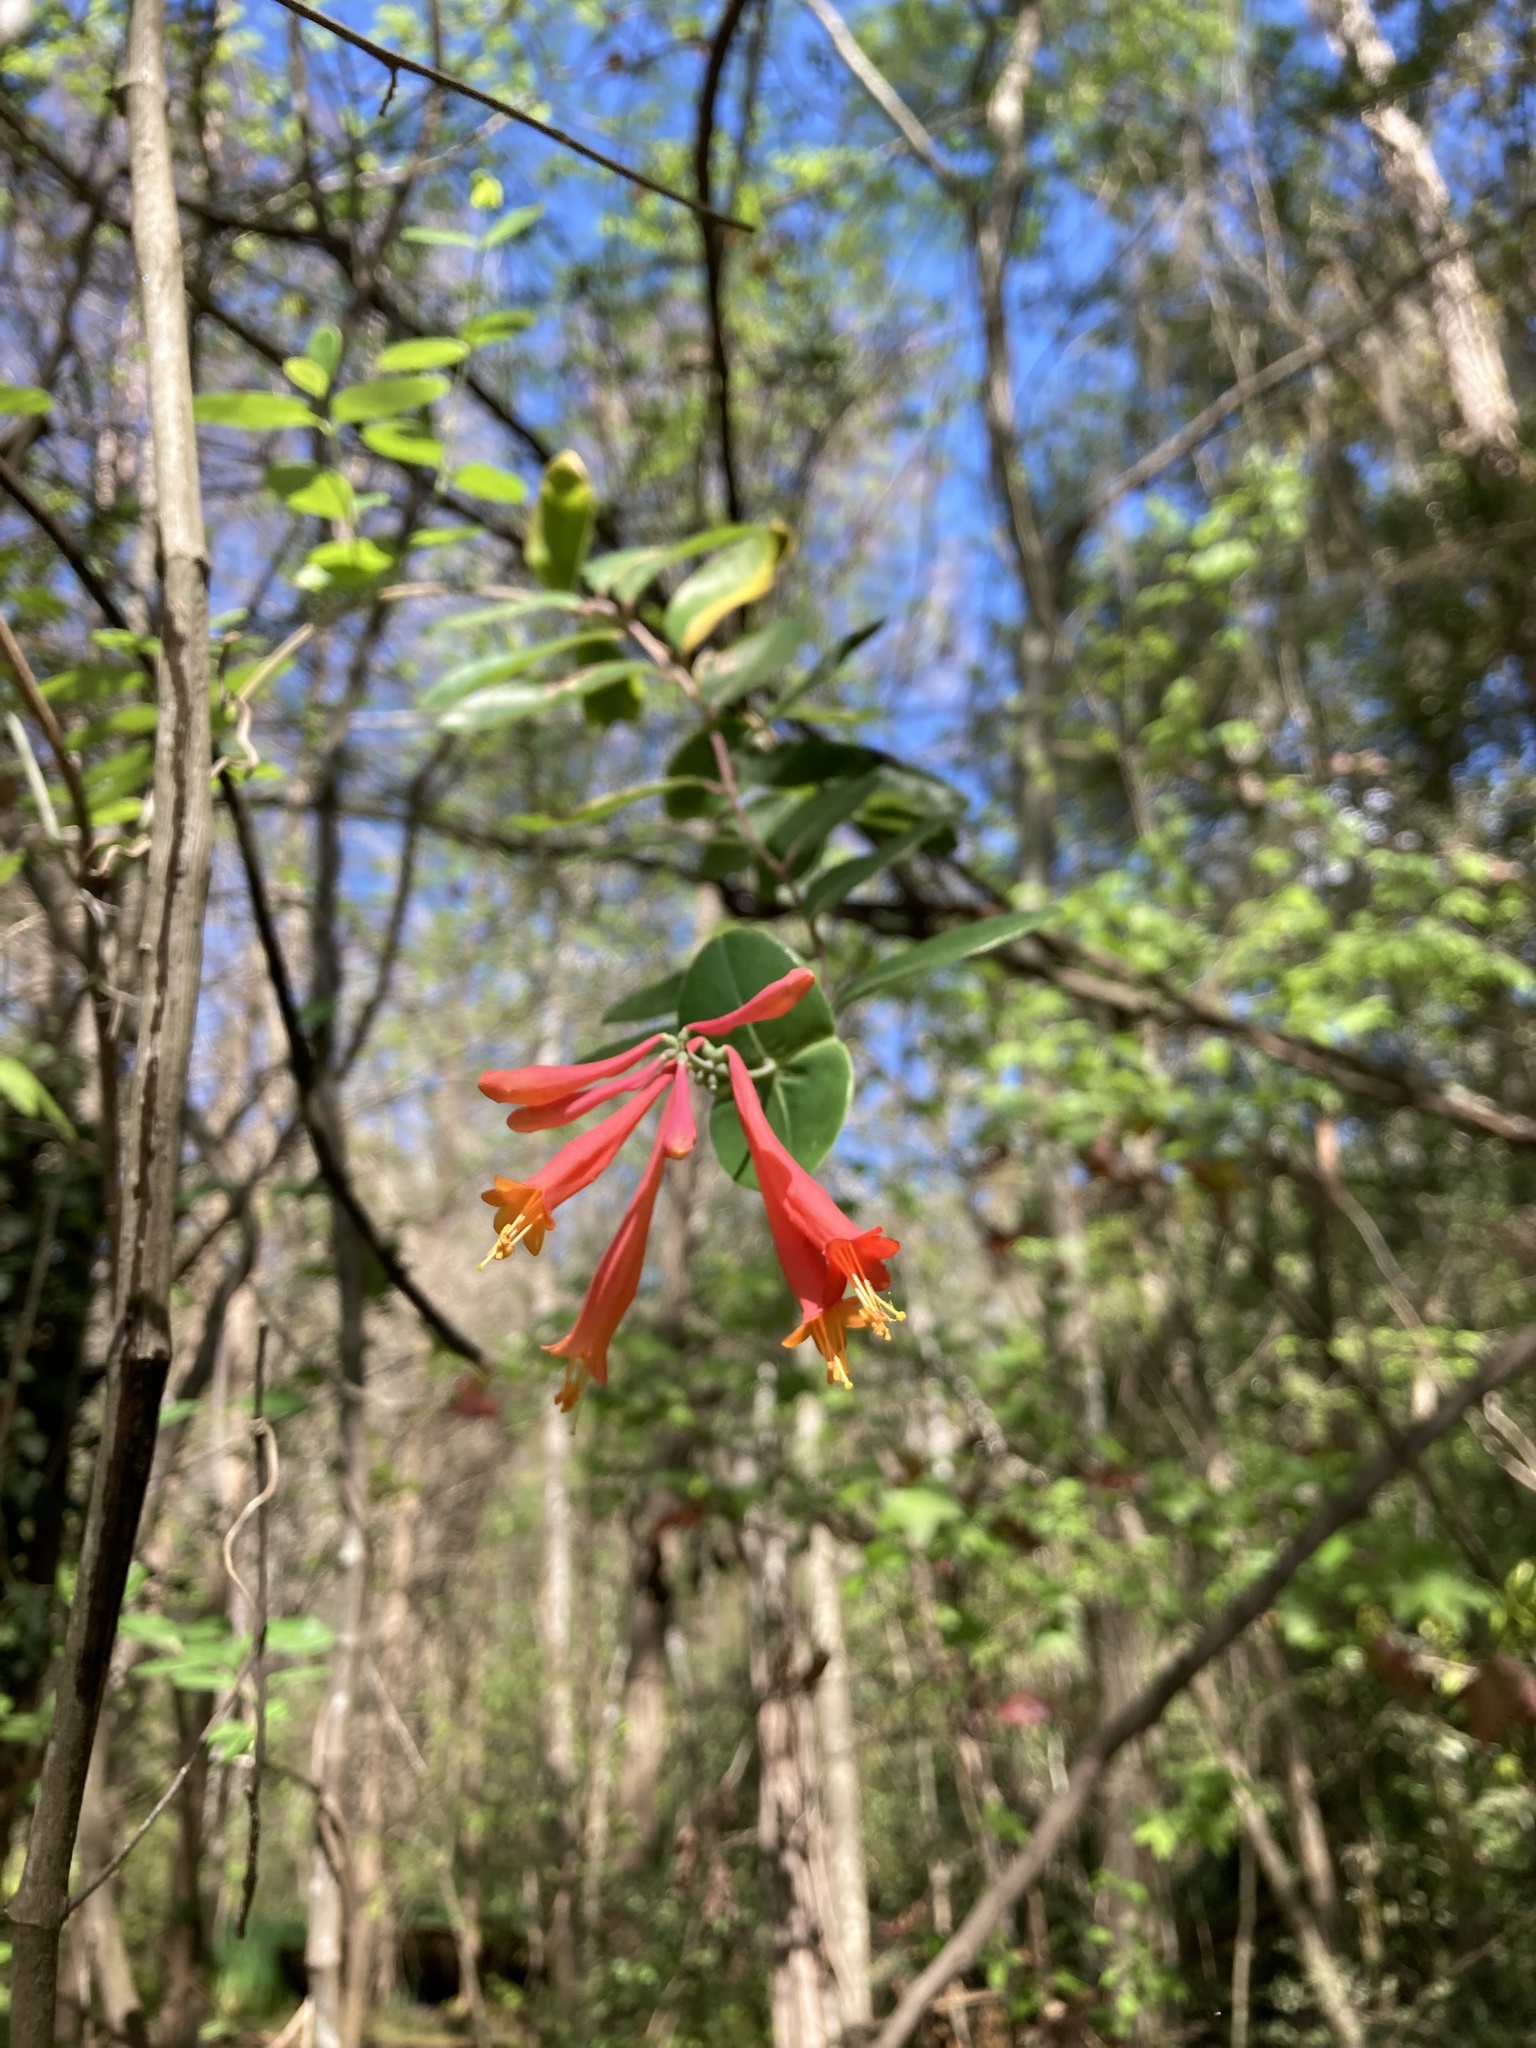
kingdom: Plantae
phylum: Tracheophyta
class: Magnoliopsida
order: Dipsacales
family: Caprifoliaceae
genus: Lonicera
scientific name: Lonicera sempervirens
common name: Coral honeysuckle
